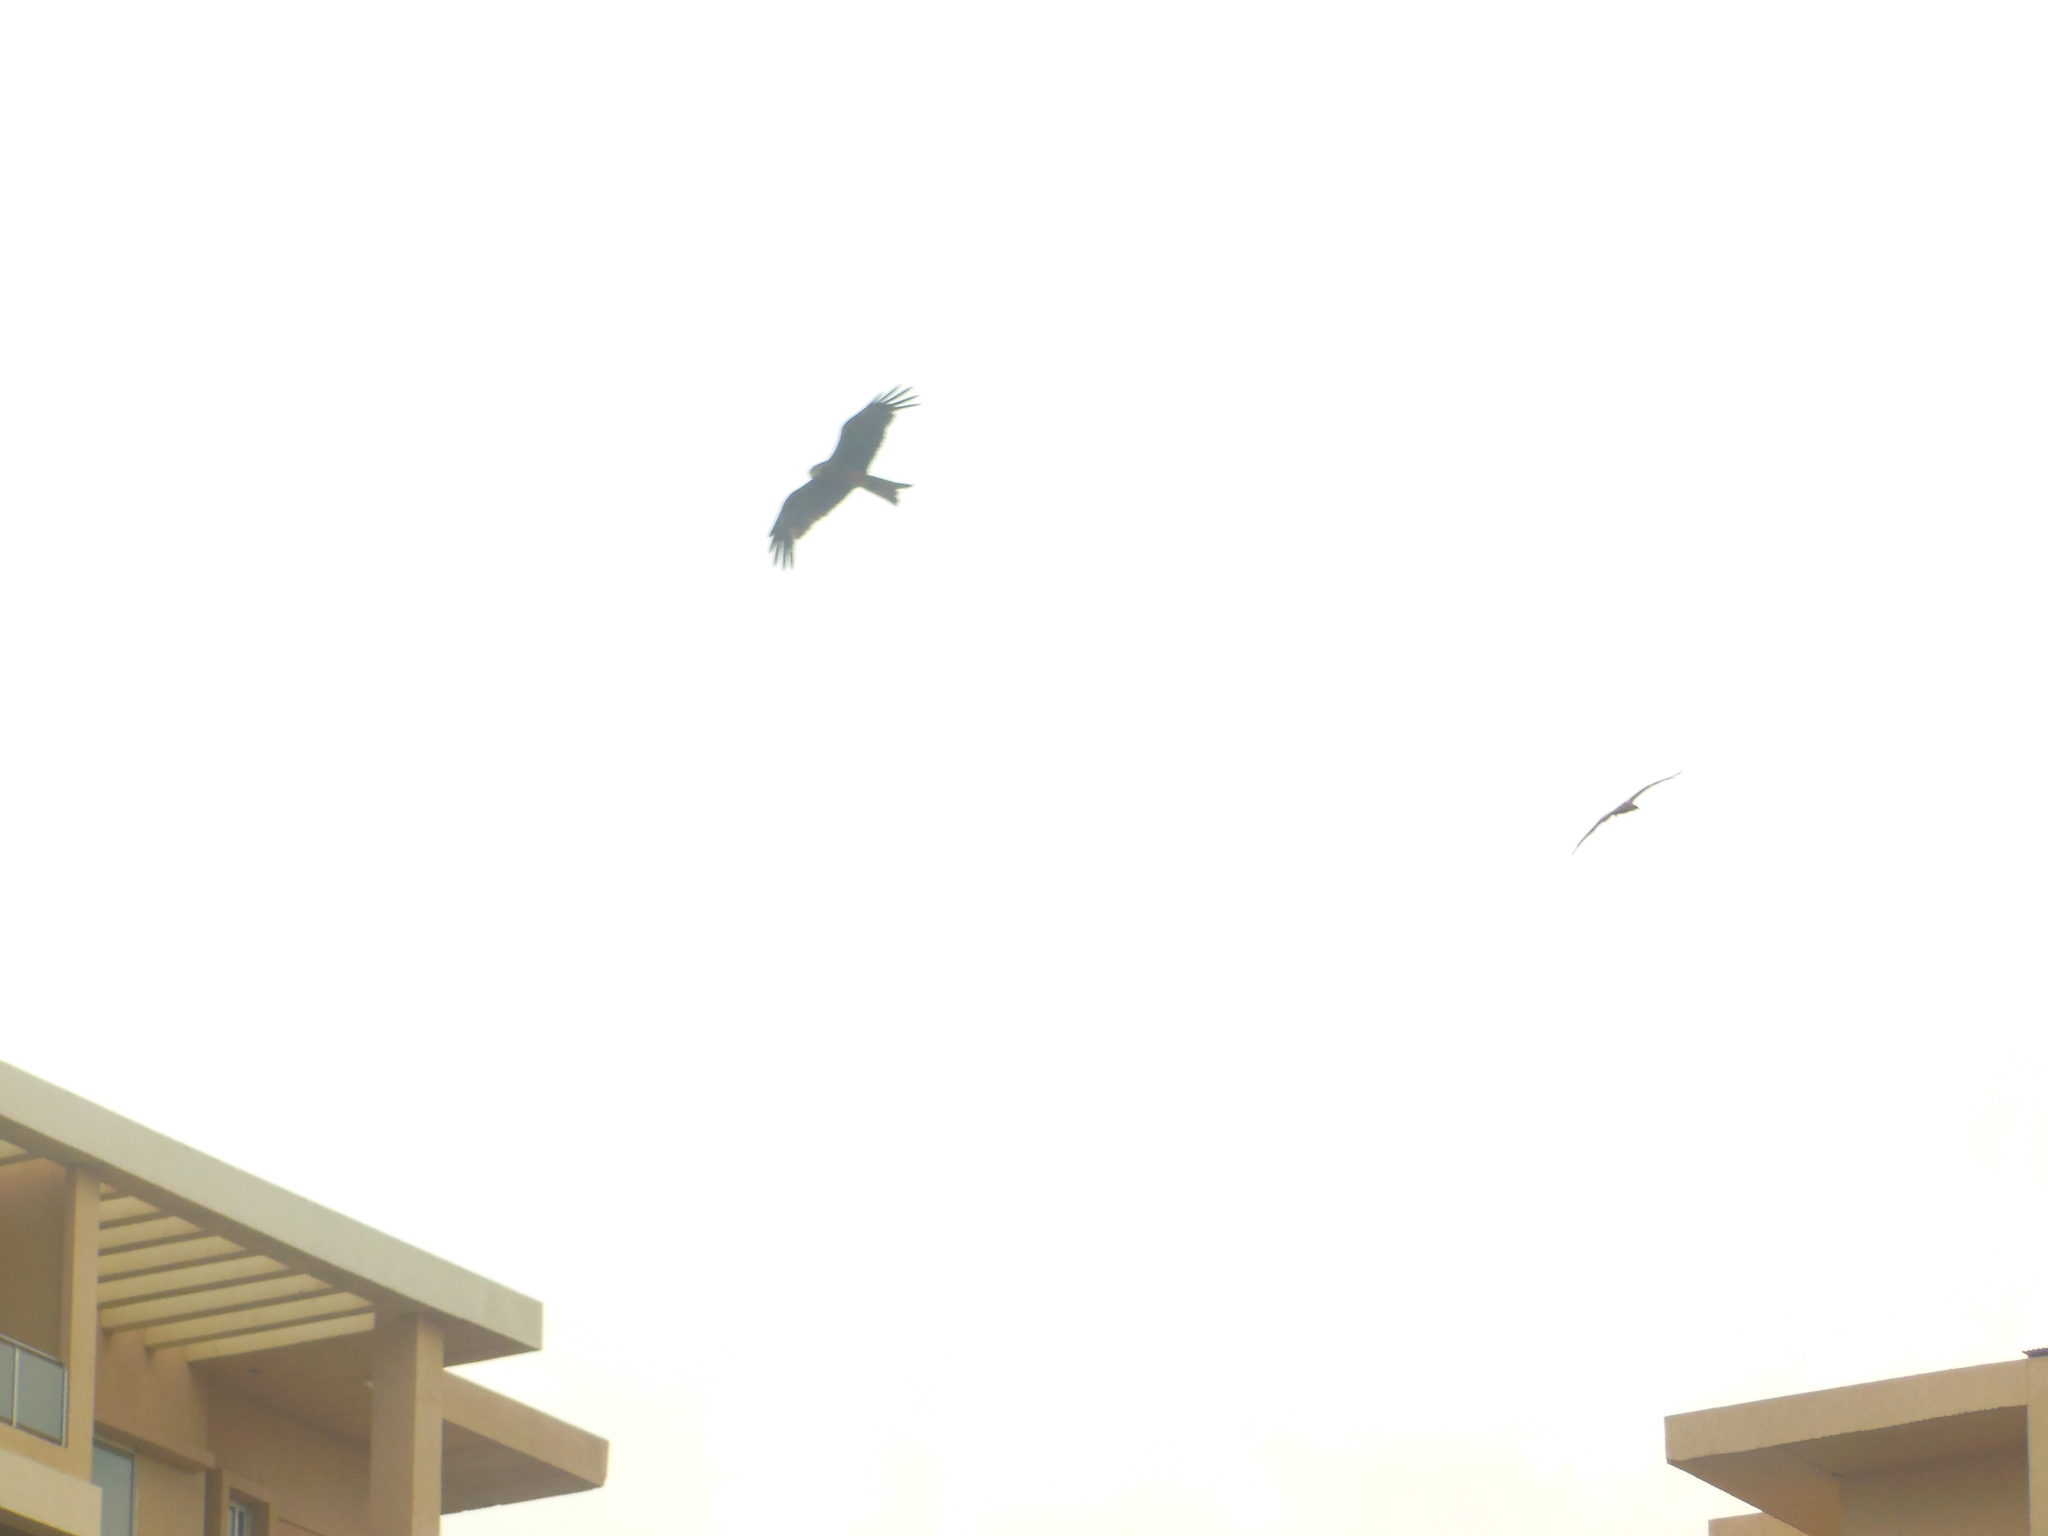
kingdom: Animalia
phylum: Chordata
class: Aves
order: Accipitriformes
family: Accipitridae
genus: Milvus
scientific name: Milvus migrans
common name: Black kite
